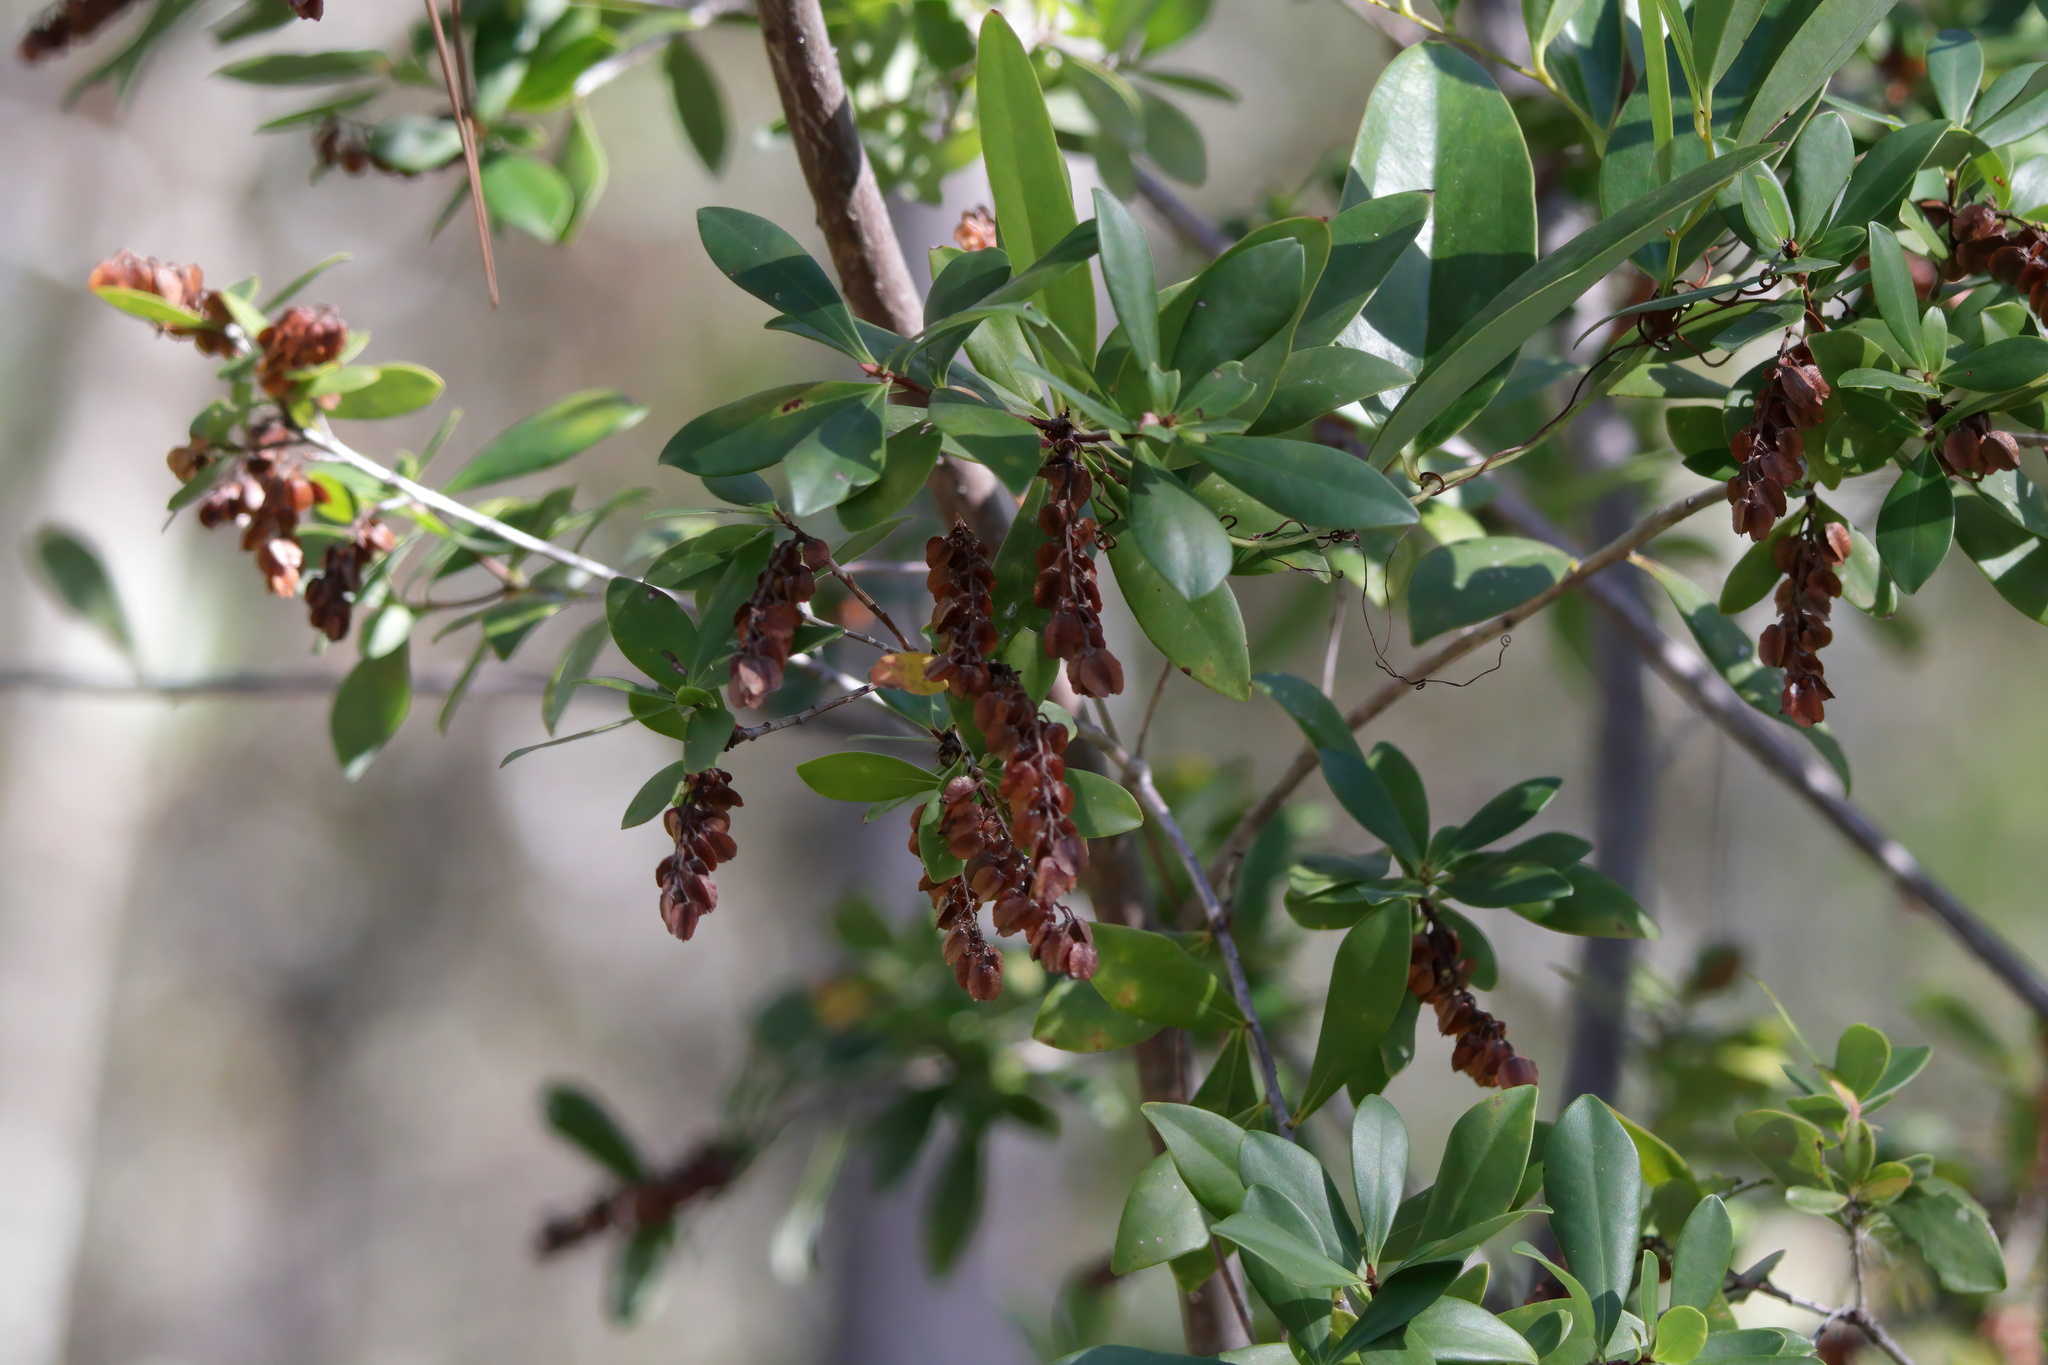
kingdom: Plantae
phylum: Tracheophyta
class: Magnoliopsida
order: Ericales
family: Cyrillaceae
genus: Cliftonia
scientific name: Cliftonia monophylla
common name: Titi
